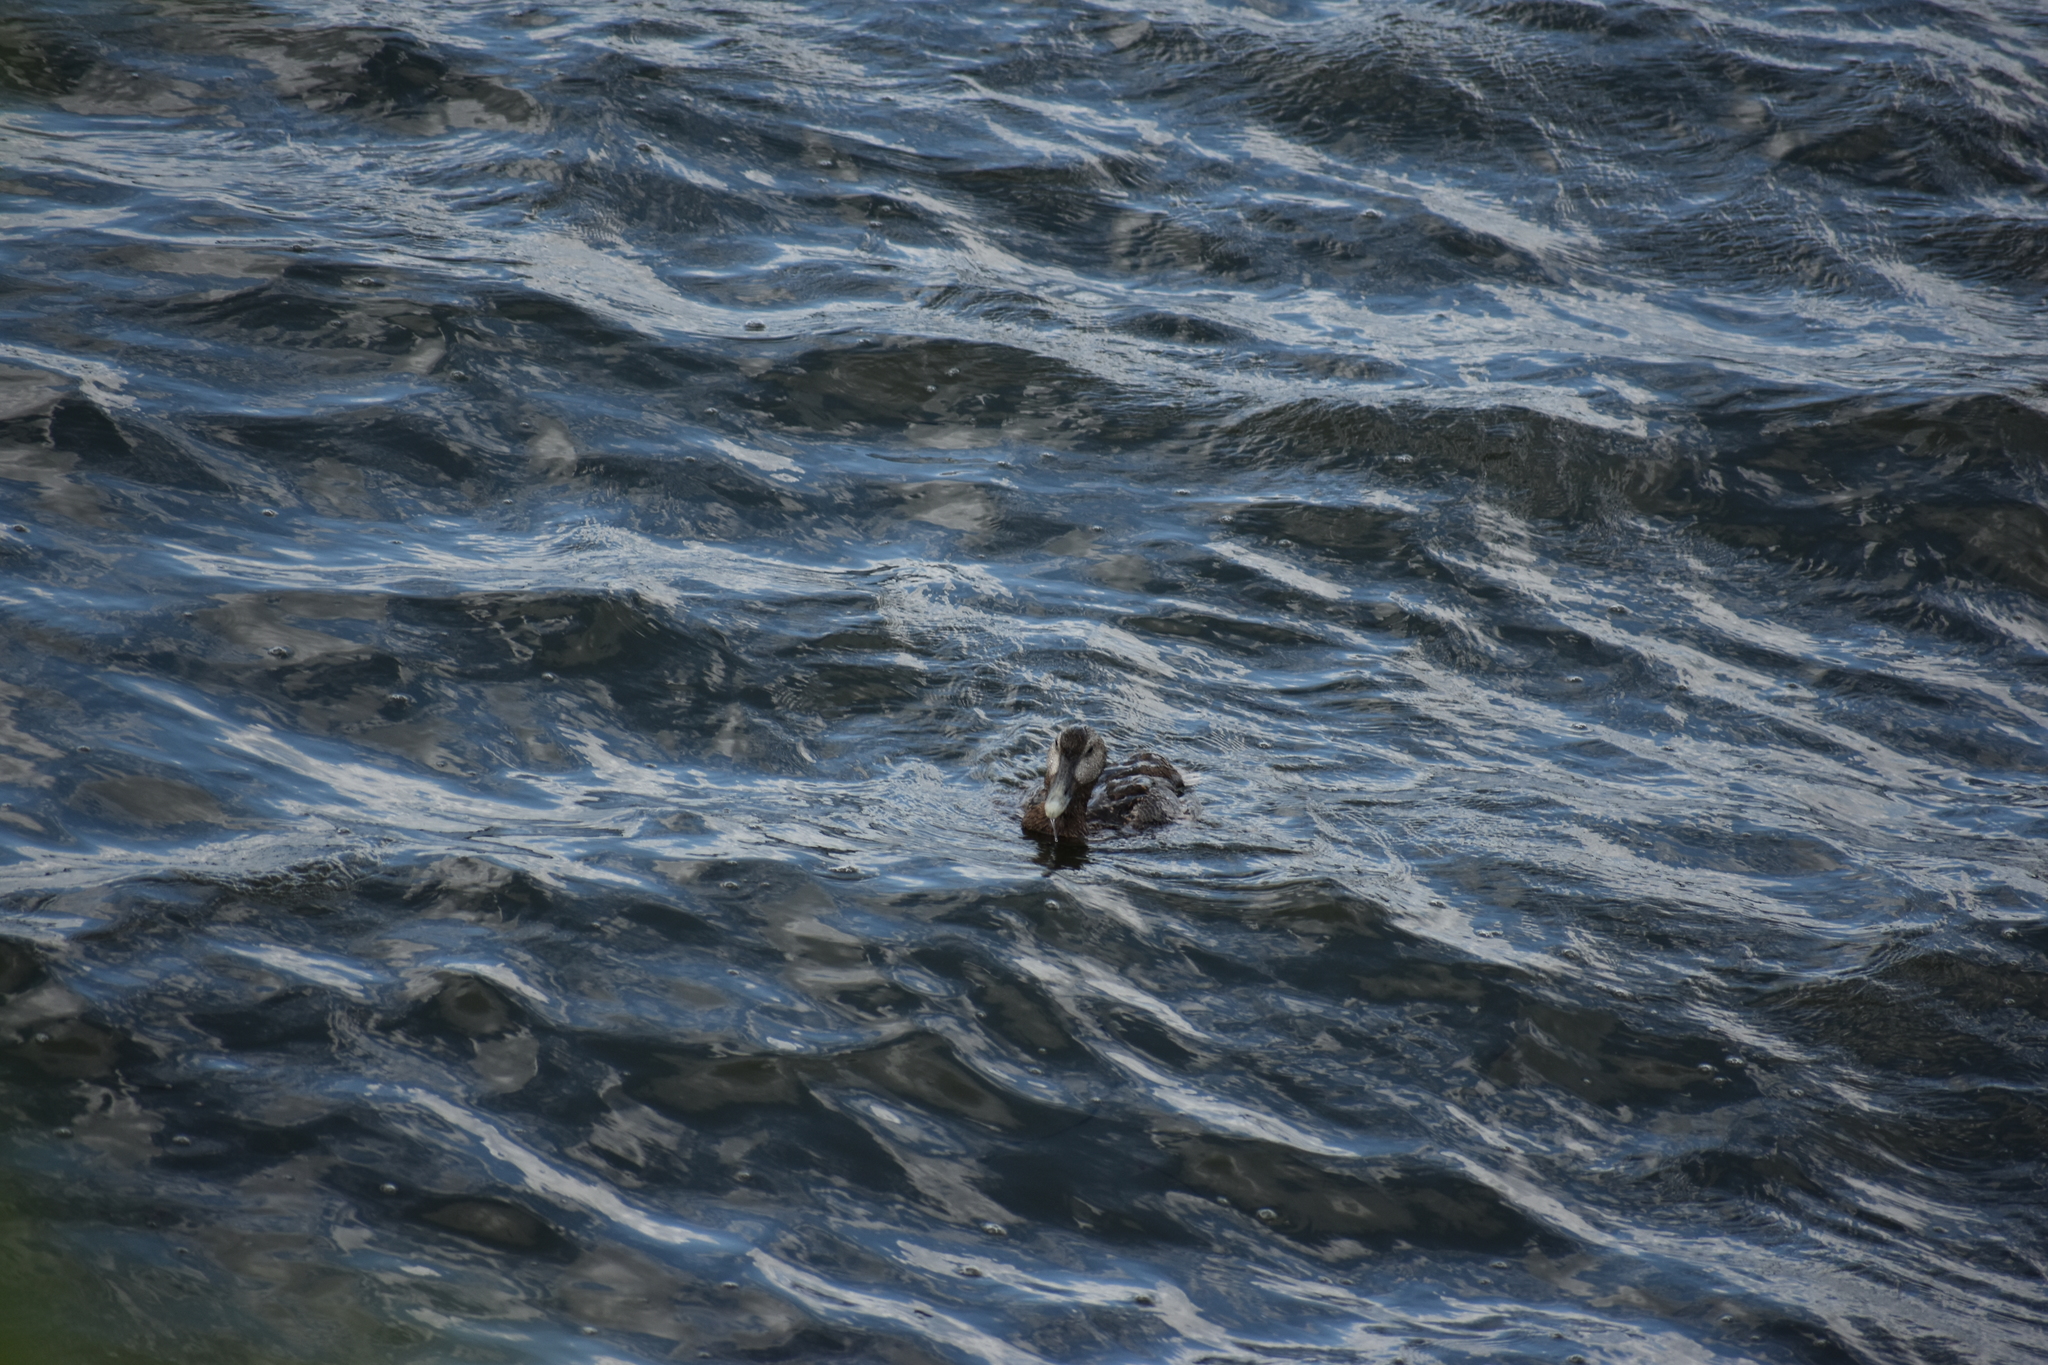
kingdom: Animalia
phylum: Chordata
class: Aves
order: Anseriformes
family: Anatidae
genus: Somateria
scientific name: Somateria mollissima
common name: Common eider
